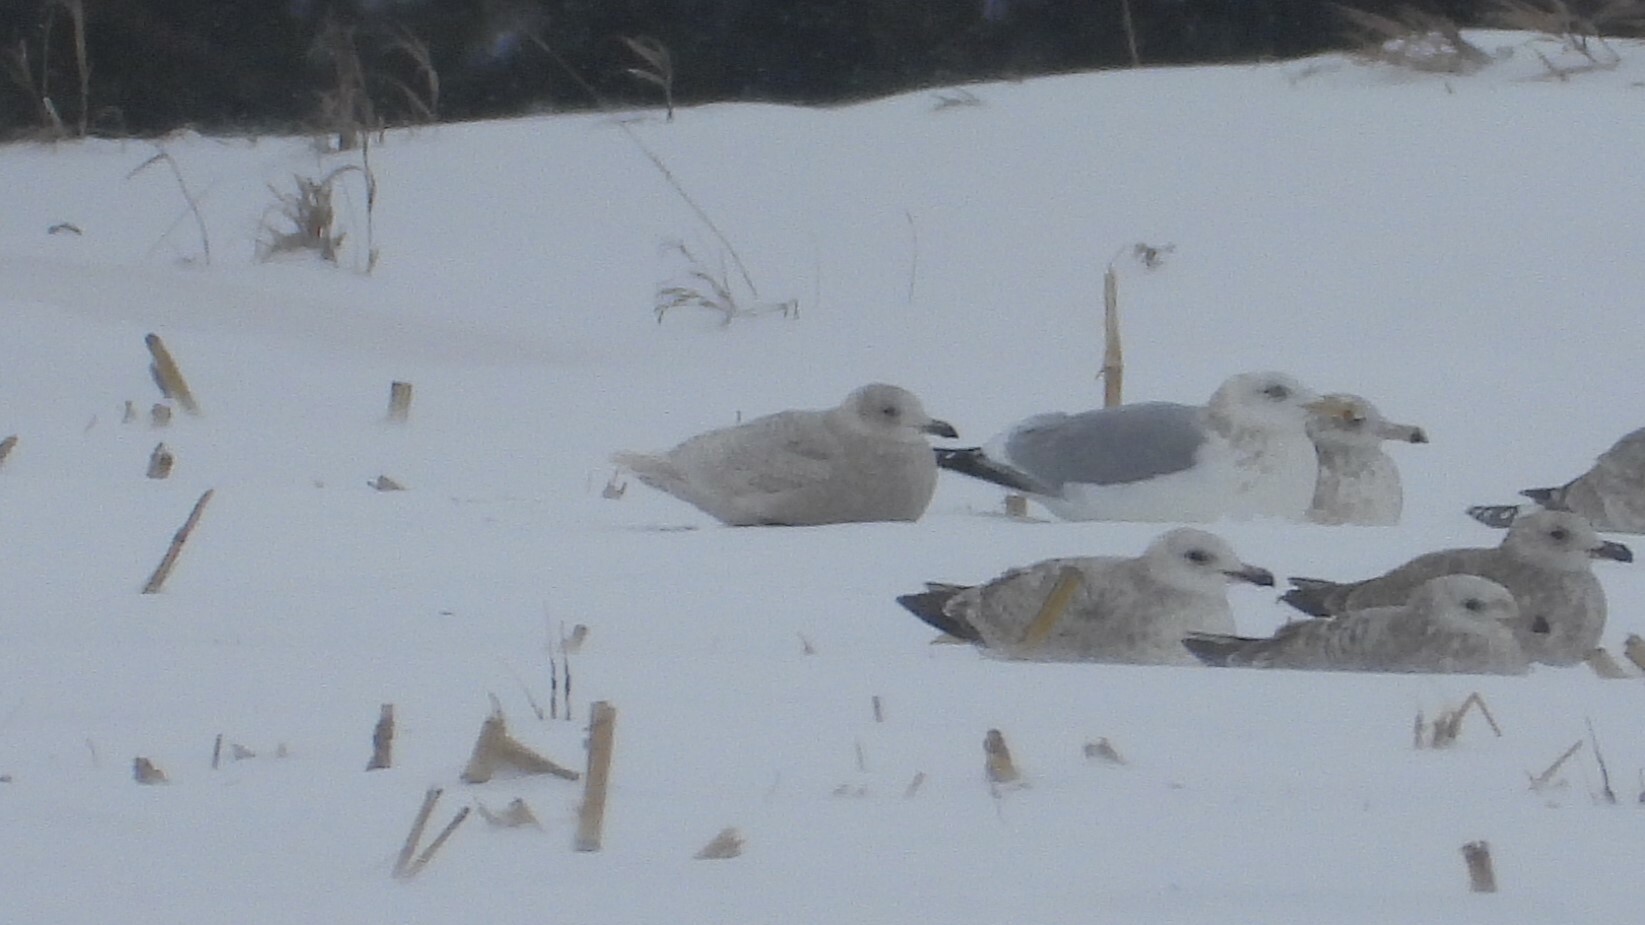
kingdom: Animalia
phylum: Chordata
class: Aves
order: Charadriiformes
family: Laridae
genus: Larus
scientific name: Larus glaucoides
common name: Iceland gull
